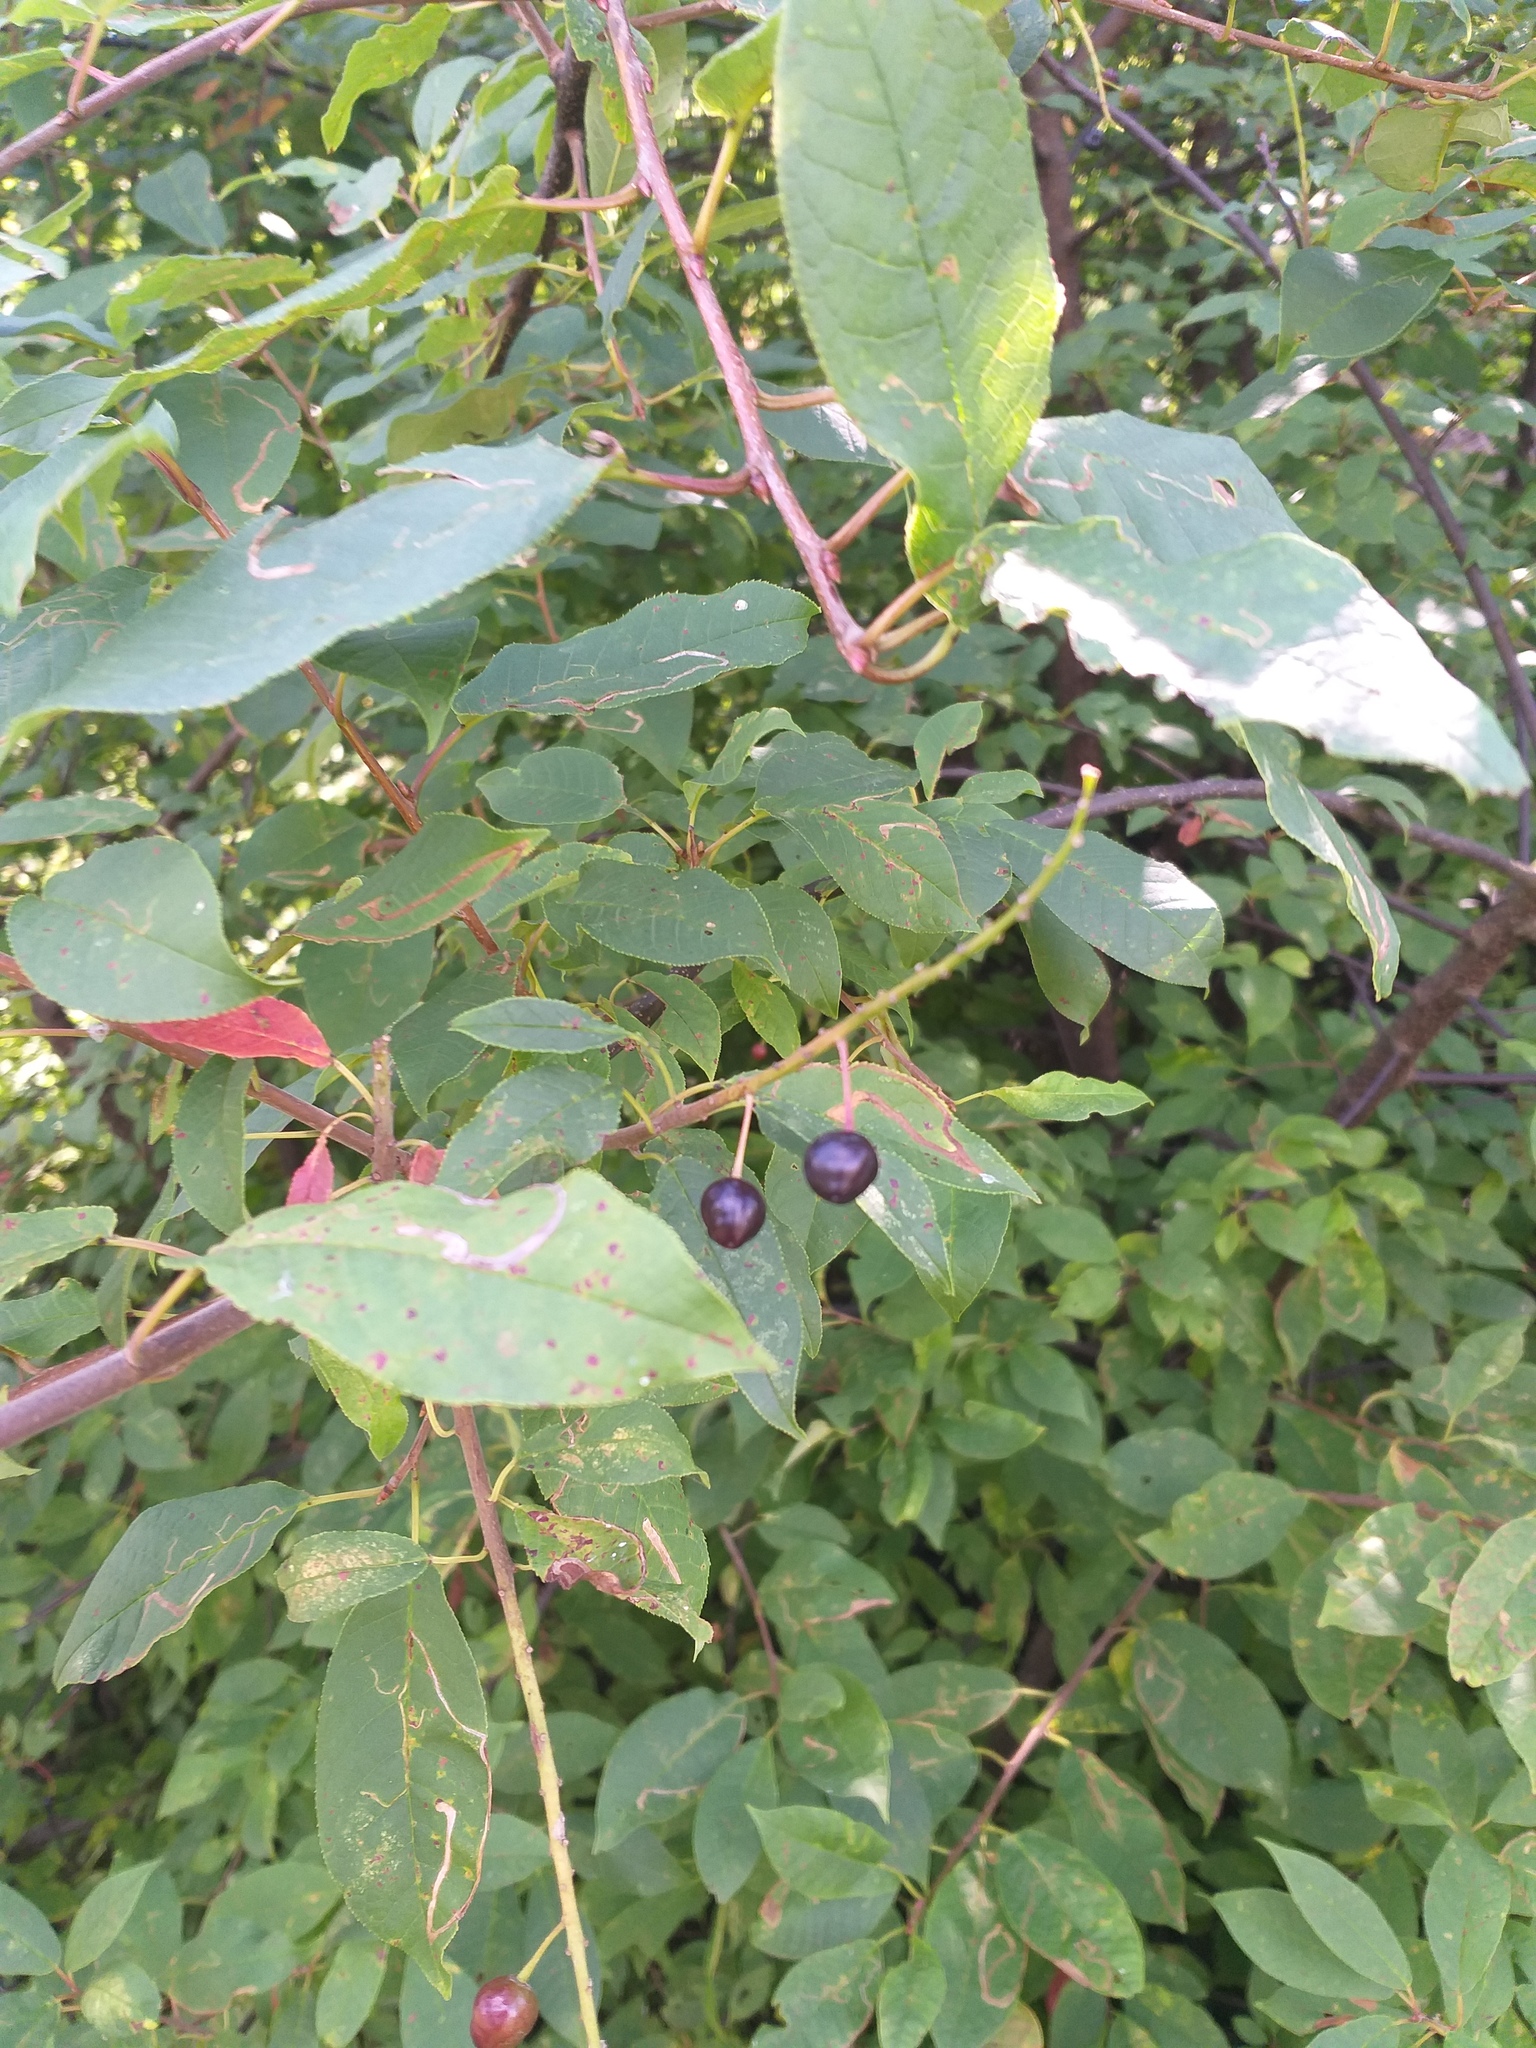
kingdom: Plantae
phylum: Tracheophyta
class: Magnoliopsida
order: Rosales
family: Rosaceae
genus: Prunus
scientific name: Prunus padus
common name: Bird cherry
